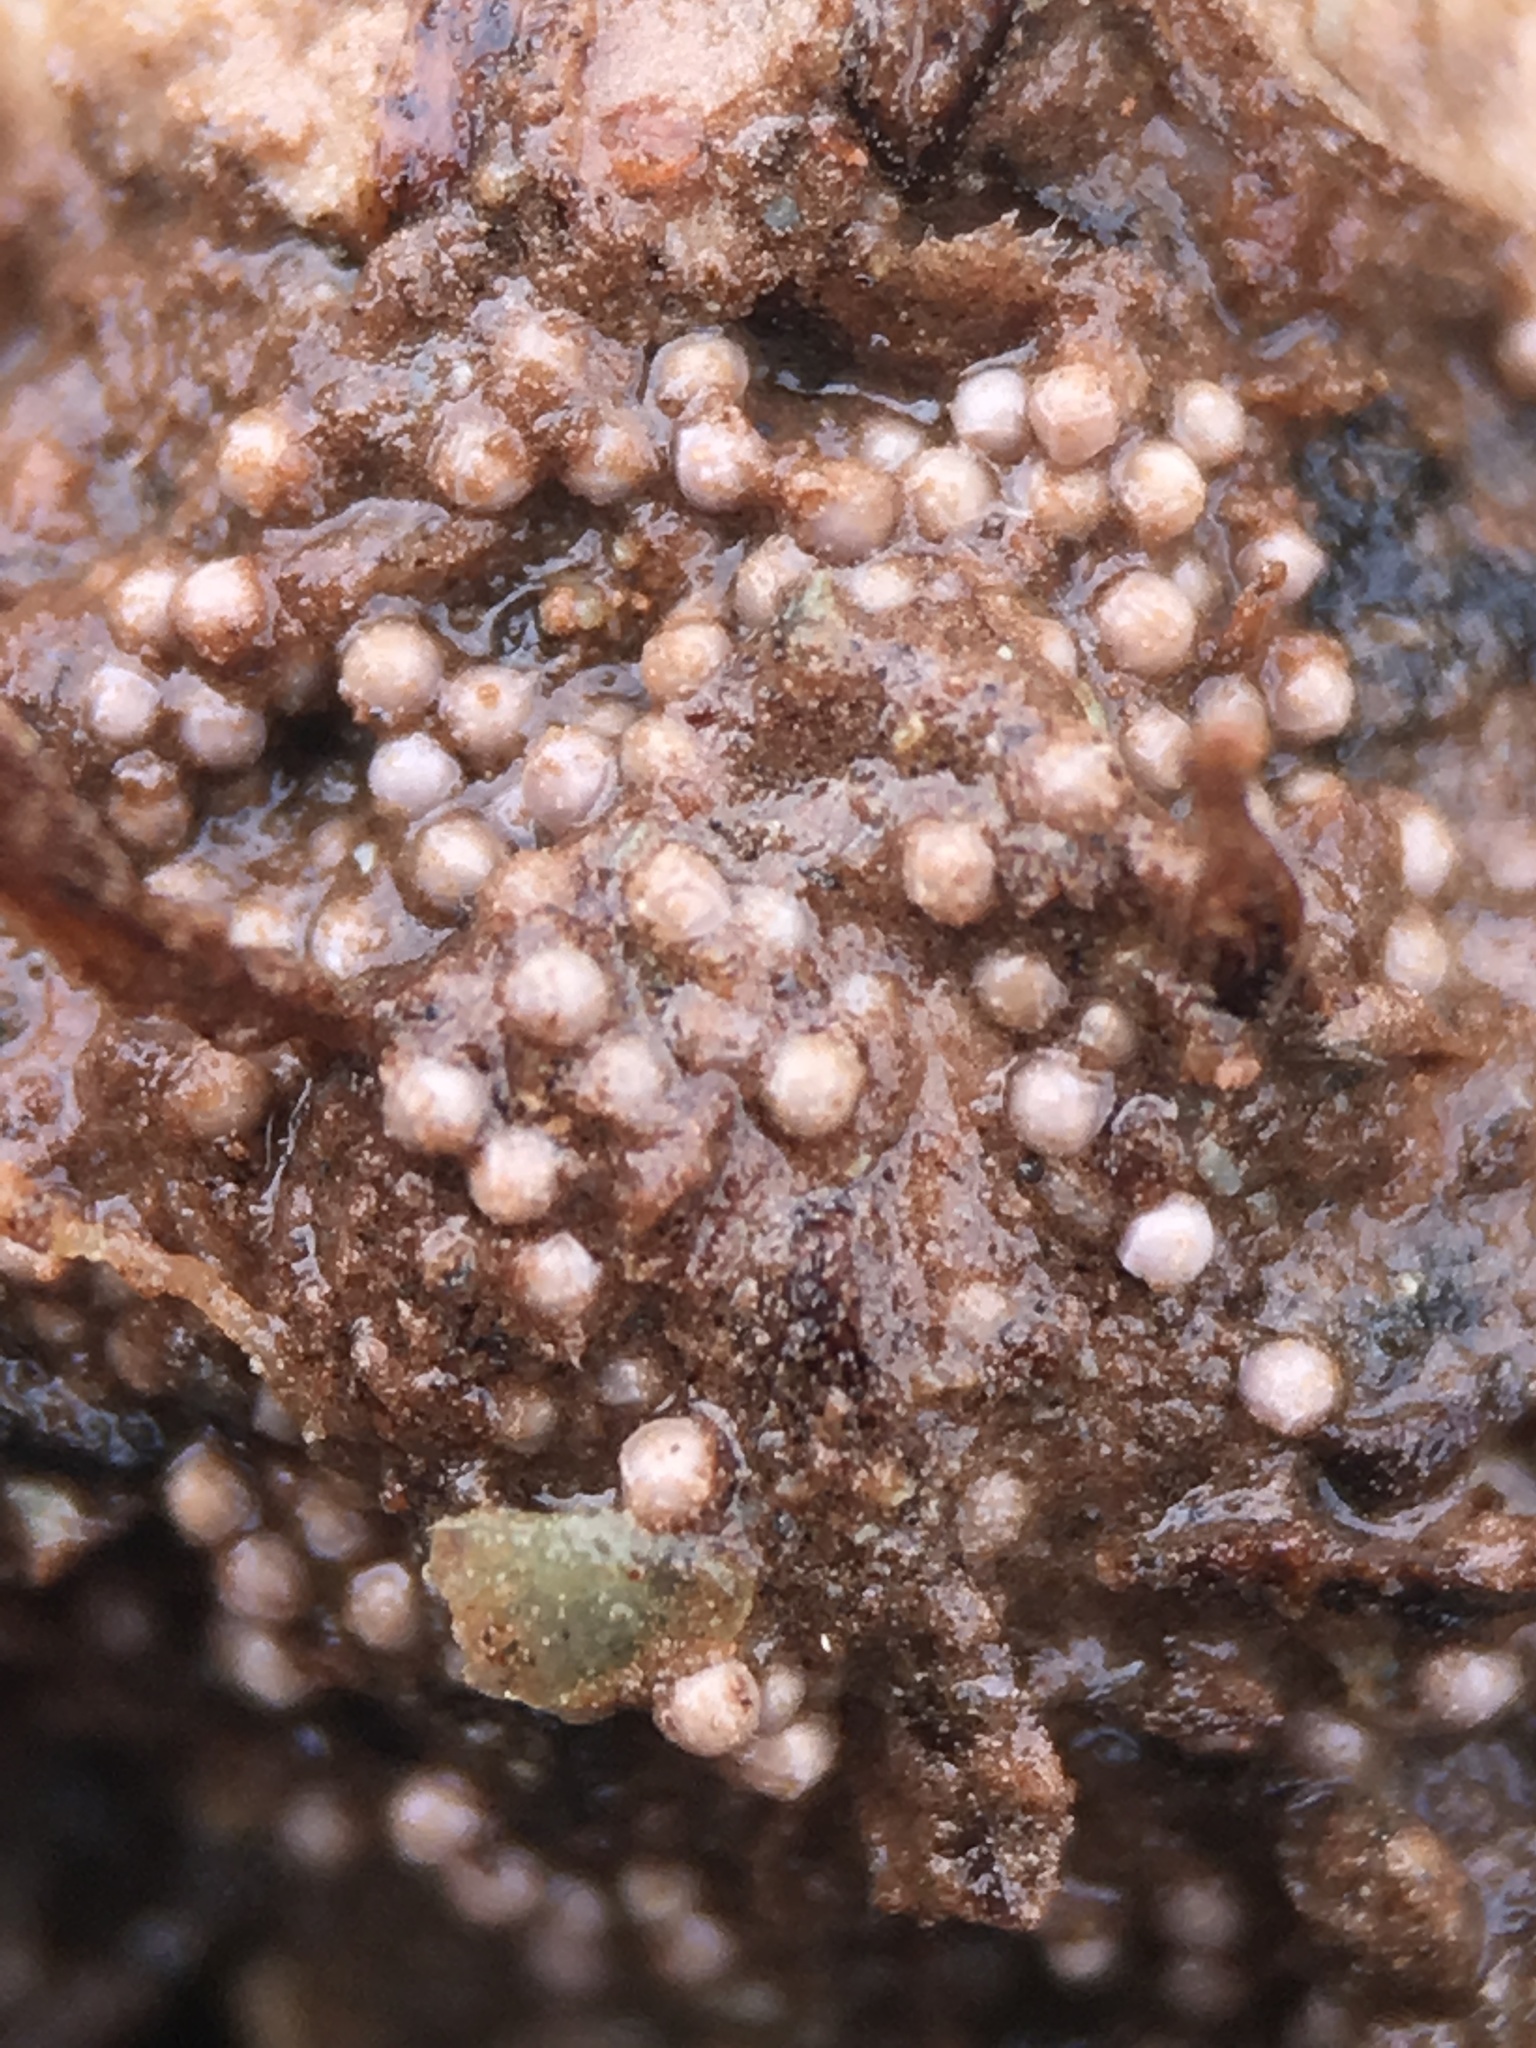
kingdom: Plantae
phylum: Tracheophyta
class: Lycopodiopsida
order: Isoetales
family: Isoetaceae
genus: Isoetes
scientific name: Isoetes nuttallii
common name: Nuttall's quillwort
